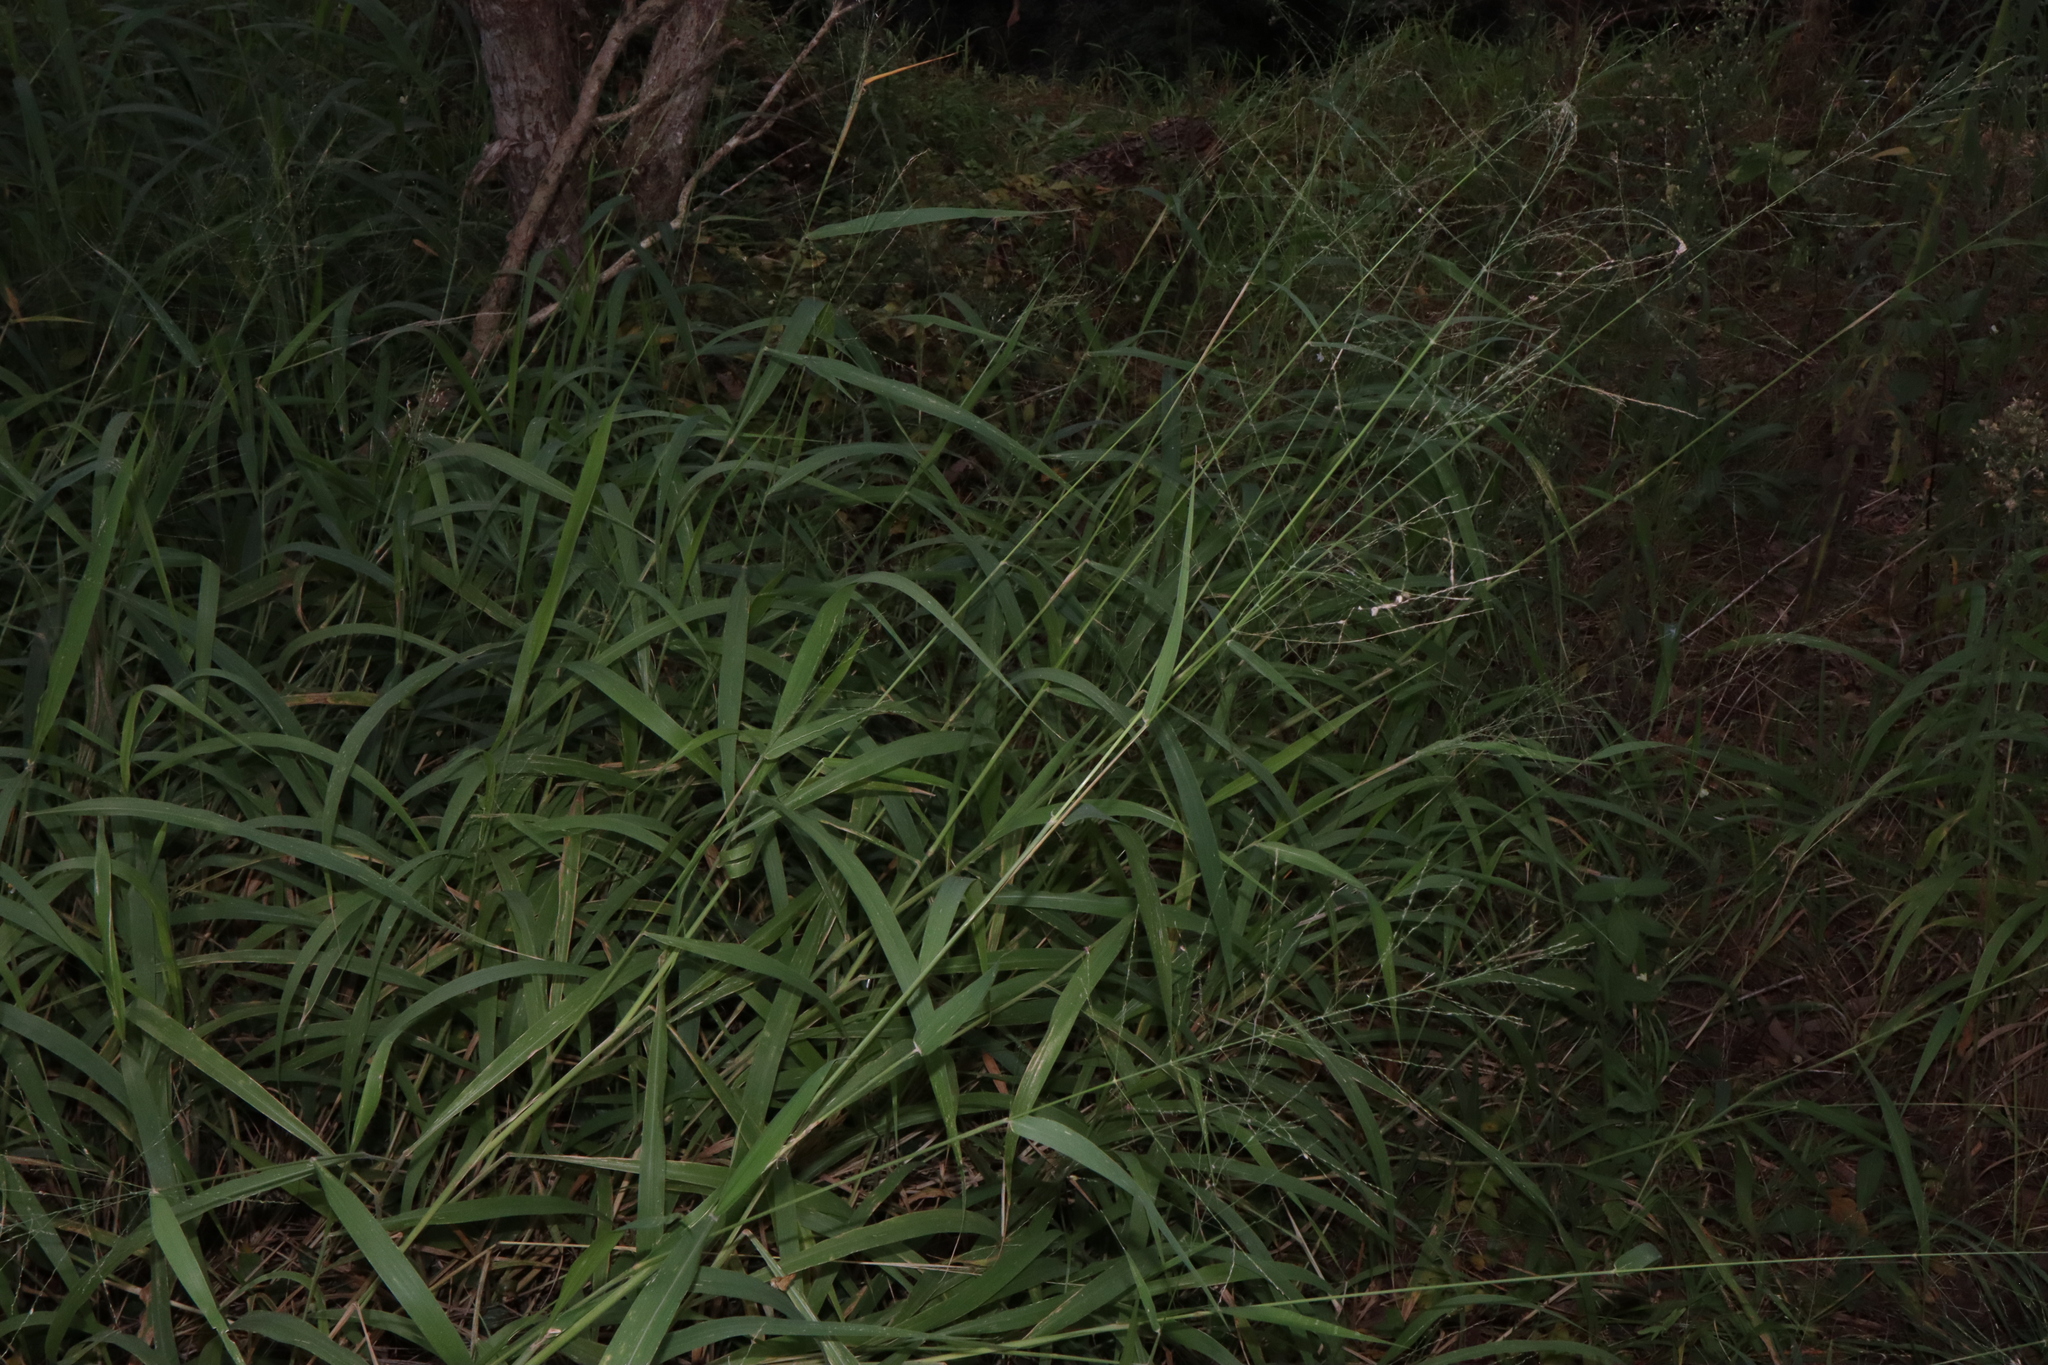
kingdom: Plantae
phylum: Tracheophyta
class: Liliopsida
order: Poales
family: Poaceae
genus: Megathyrsus
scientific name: Megathyrsus maximus
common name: Guineagrass
